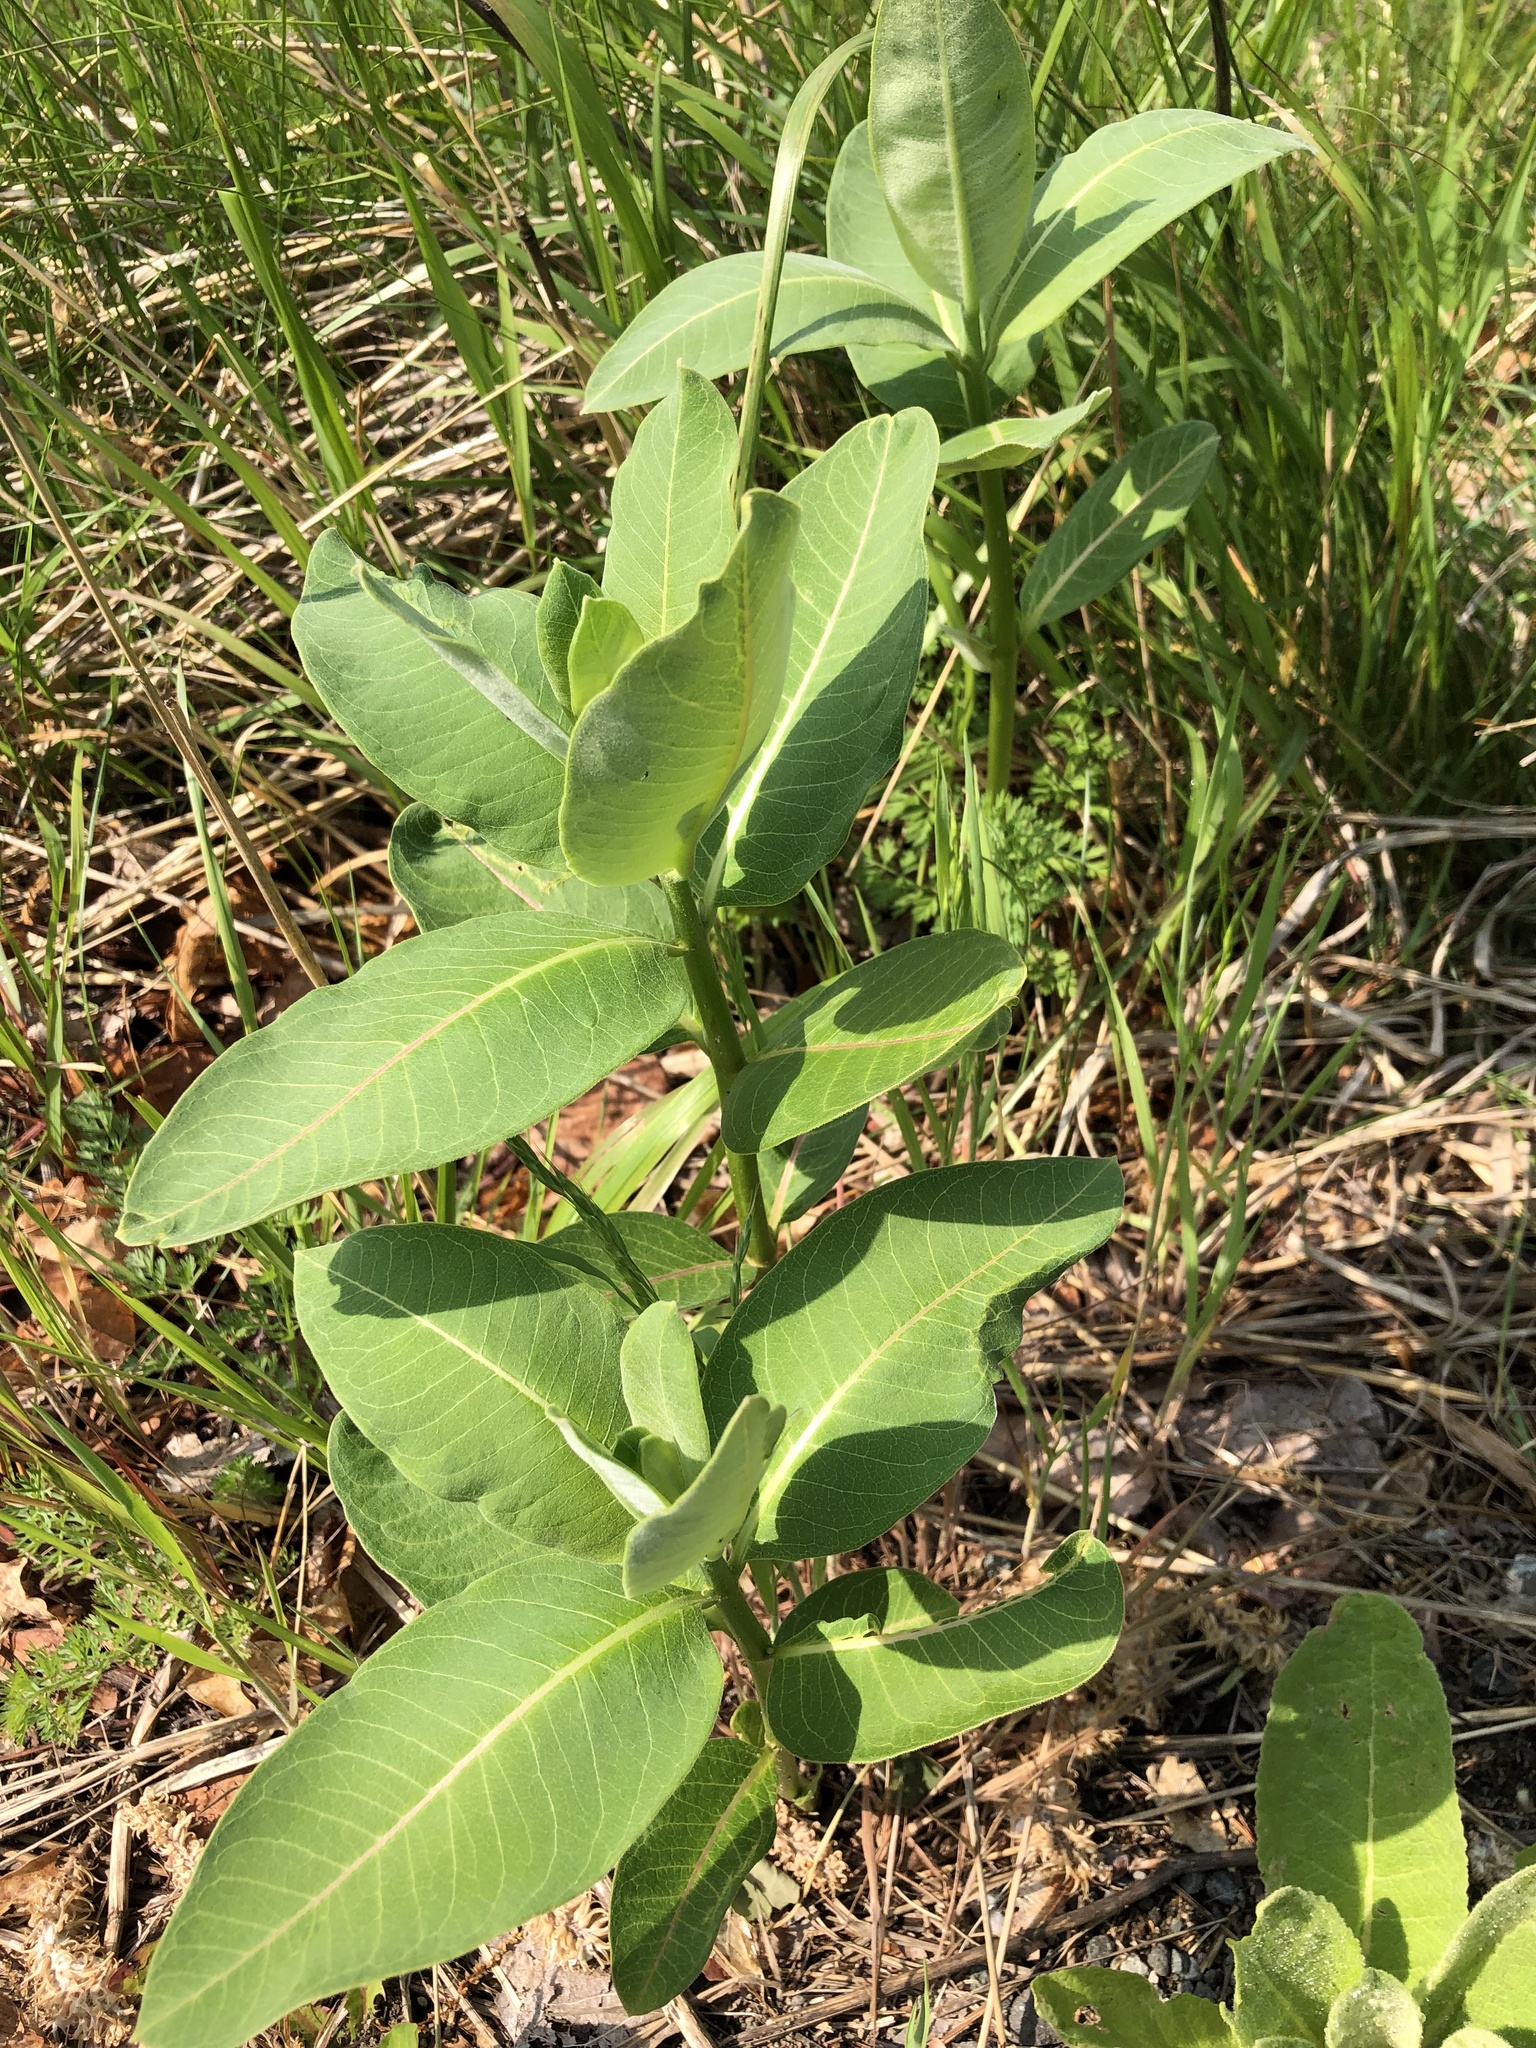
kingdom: Plantae
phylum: Tracheophyta
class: Magnoliopsida
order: Gentianales
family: Apocynaceae
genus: Asclepias
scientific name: Asclepias syriaca
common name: Common milkweed
